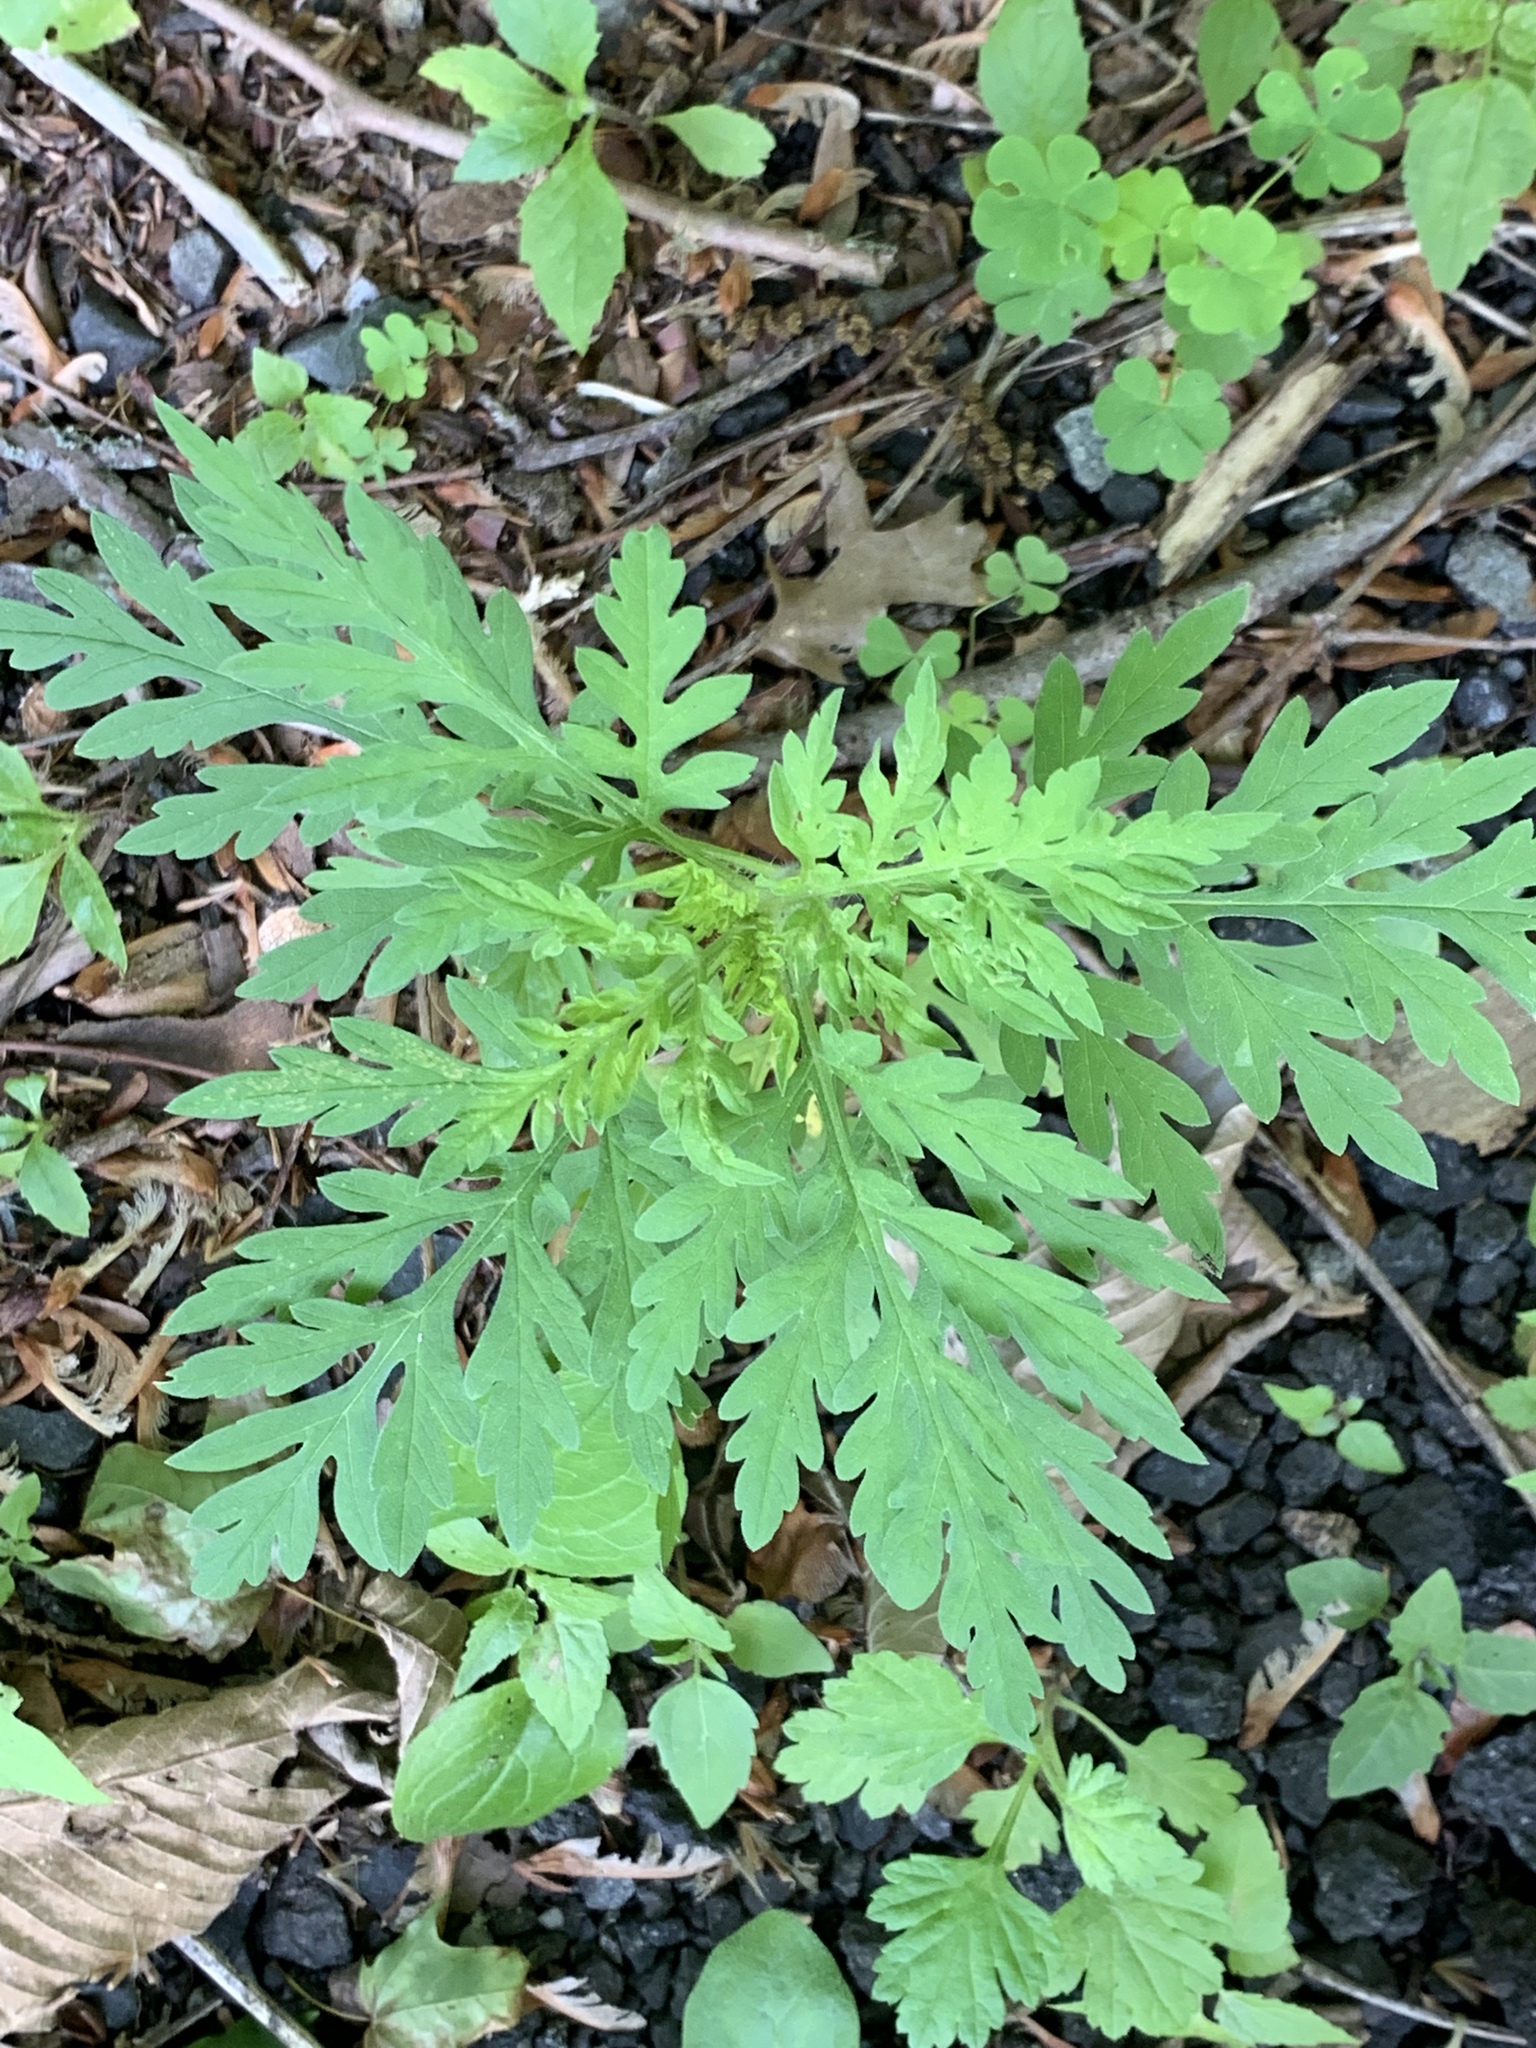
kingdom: Plantae
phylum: Tracheophyta
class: Magnoliopsida
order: Asterales
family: Asteraceae
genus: Ambrosia
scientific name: Ambrosia artemisiifolia
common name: Annual ragweed
